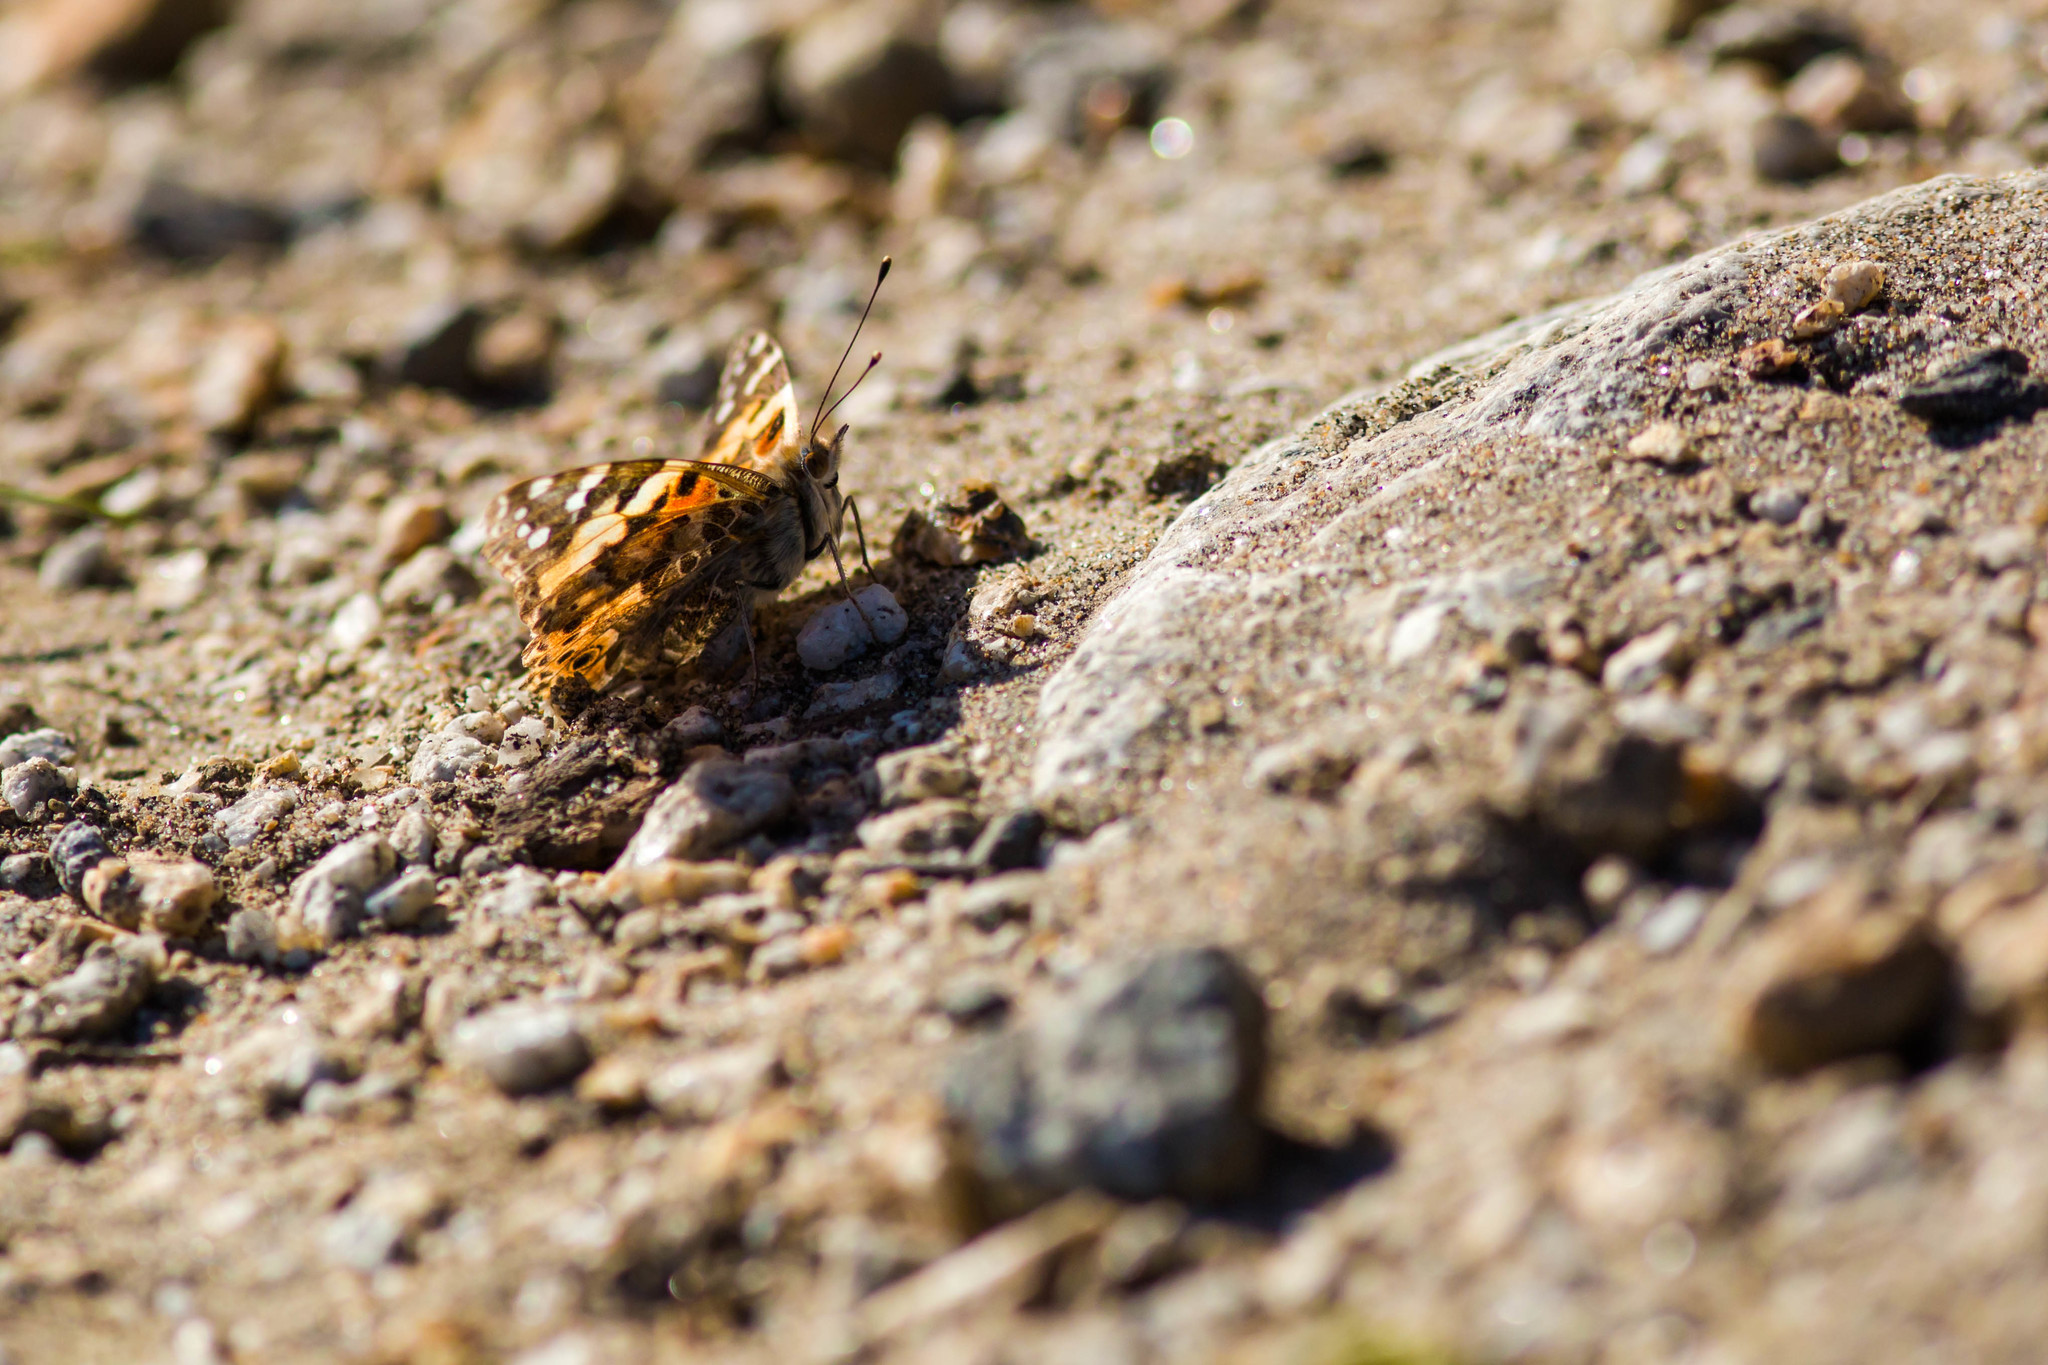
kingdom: Animalia
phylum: Arthropoda
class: Insecta
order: Lepidoptera
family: Nymphalidae
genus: Vanessa
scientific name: Vanessa cardui
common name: Painted lady
